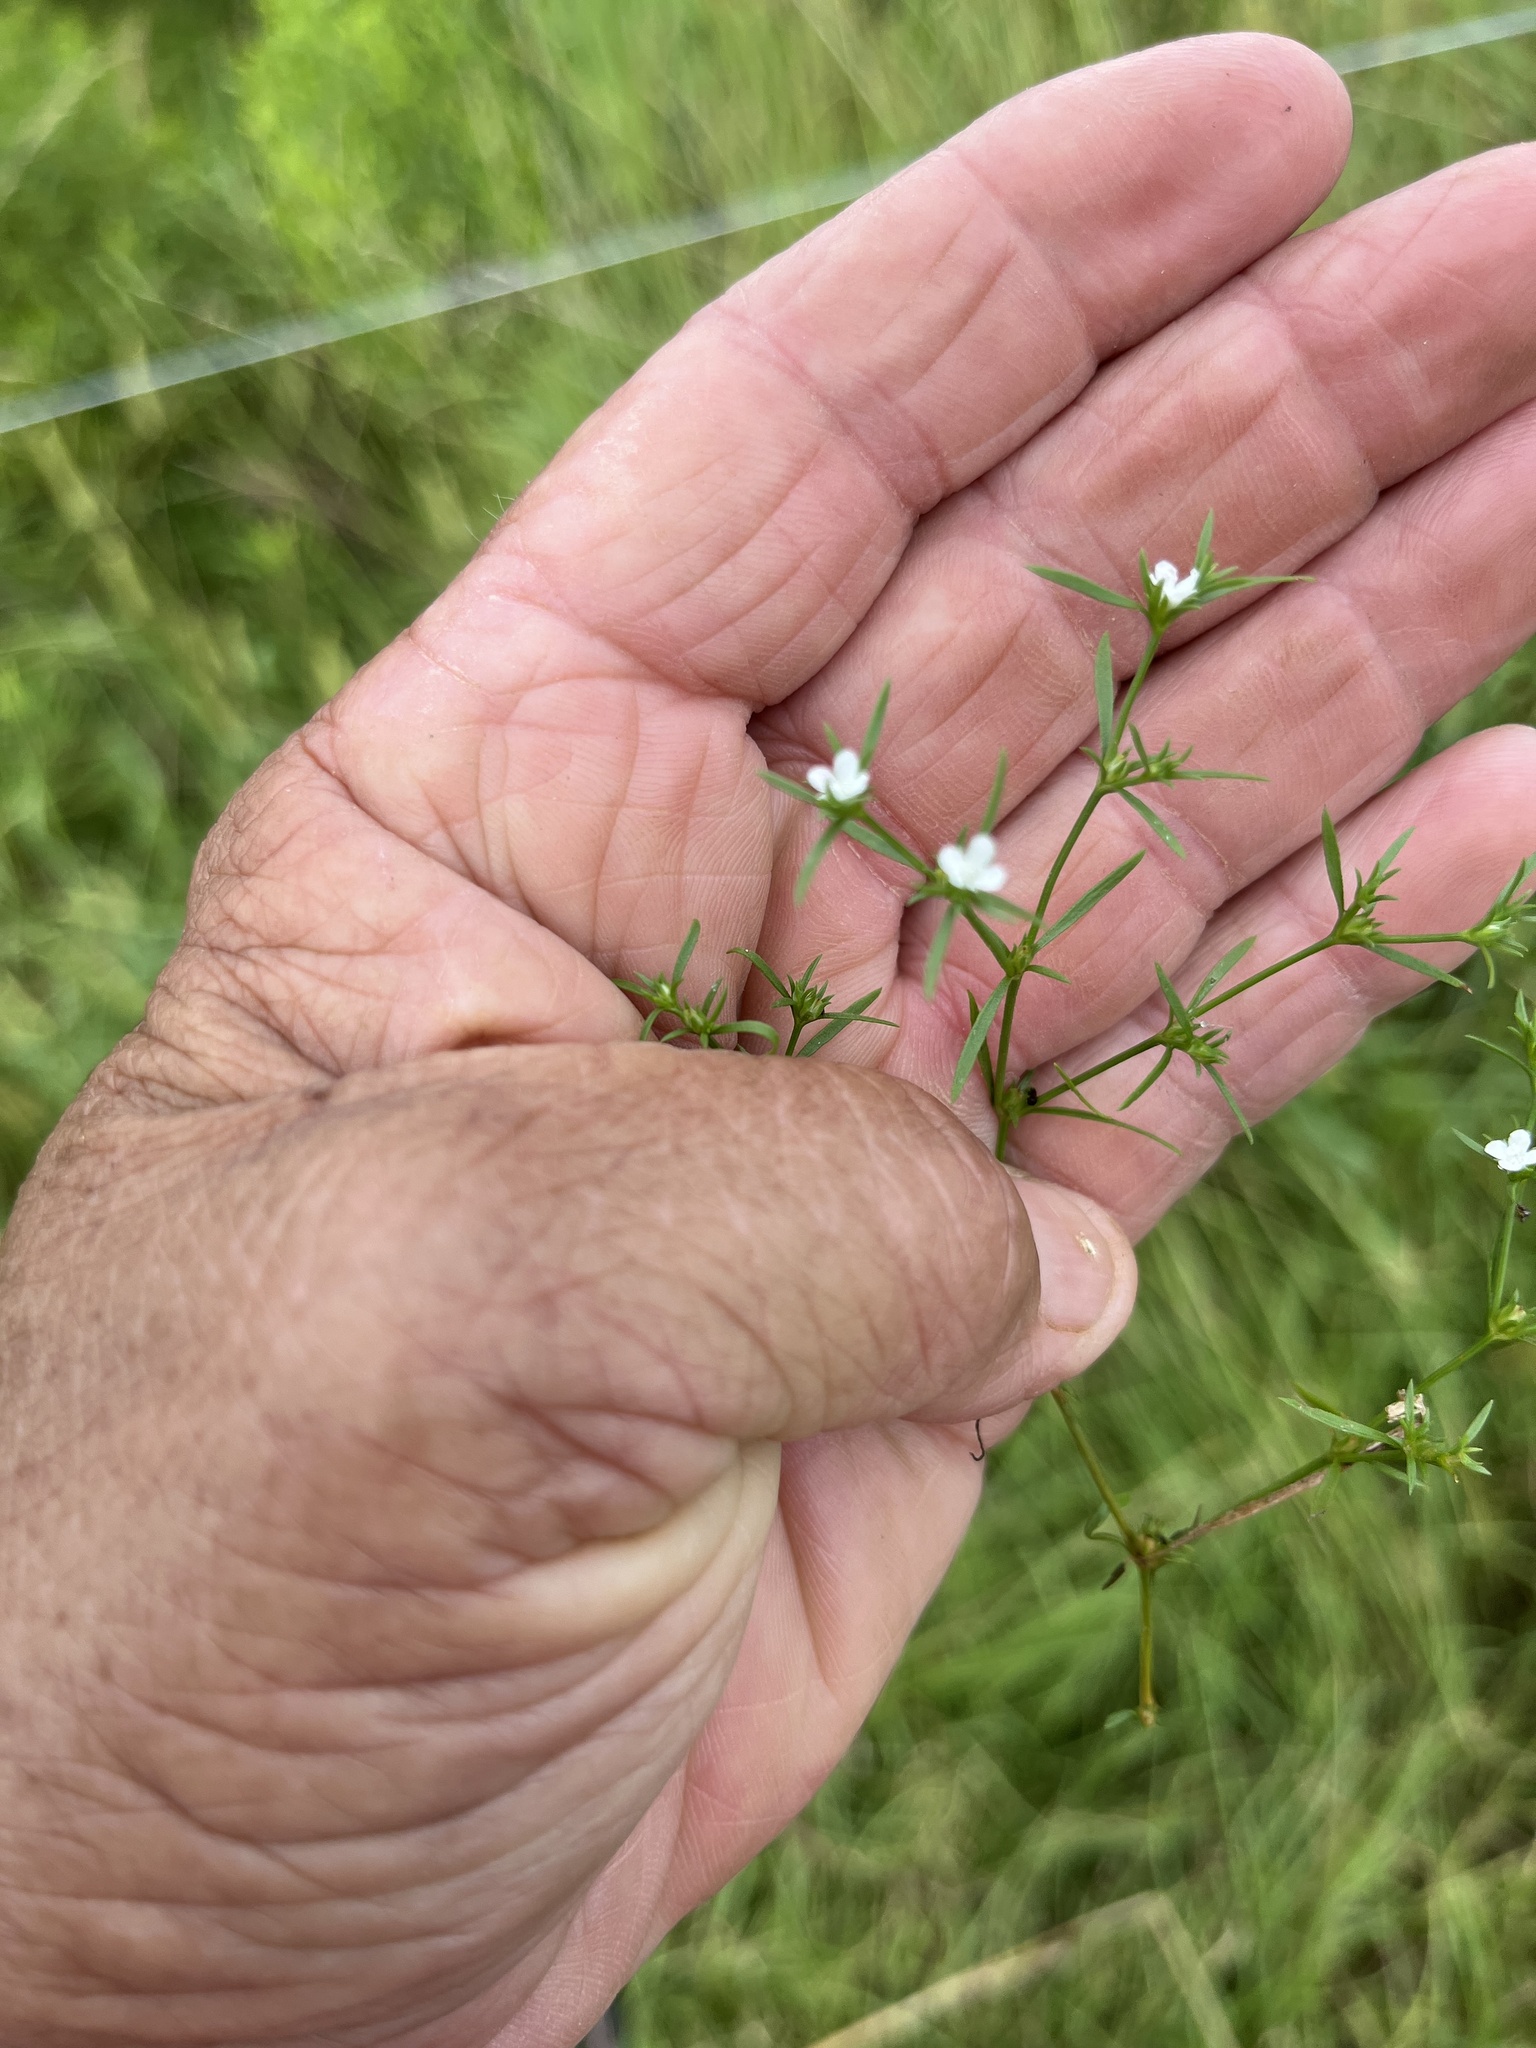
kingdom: Plantae
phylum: Tracheophyta
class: Magnoliopsida
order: Lamiales
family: Tetrachondraceae
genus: Polypremum
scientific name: Polypremum procumbens
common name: Juniper-leaf
